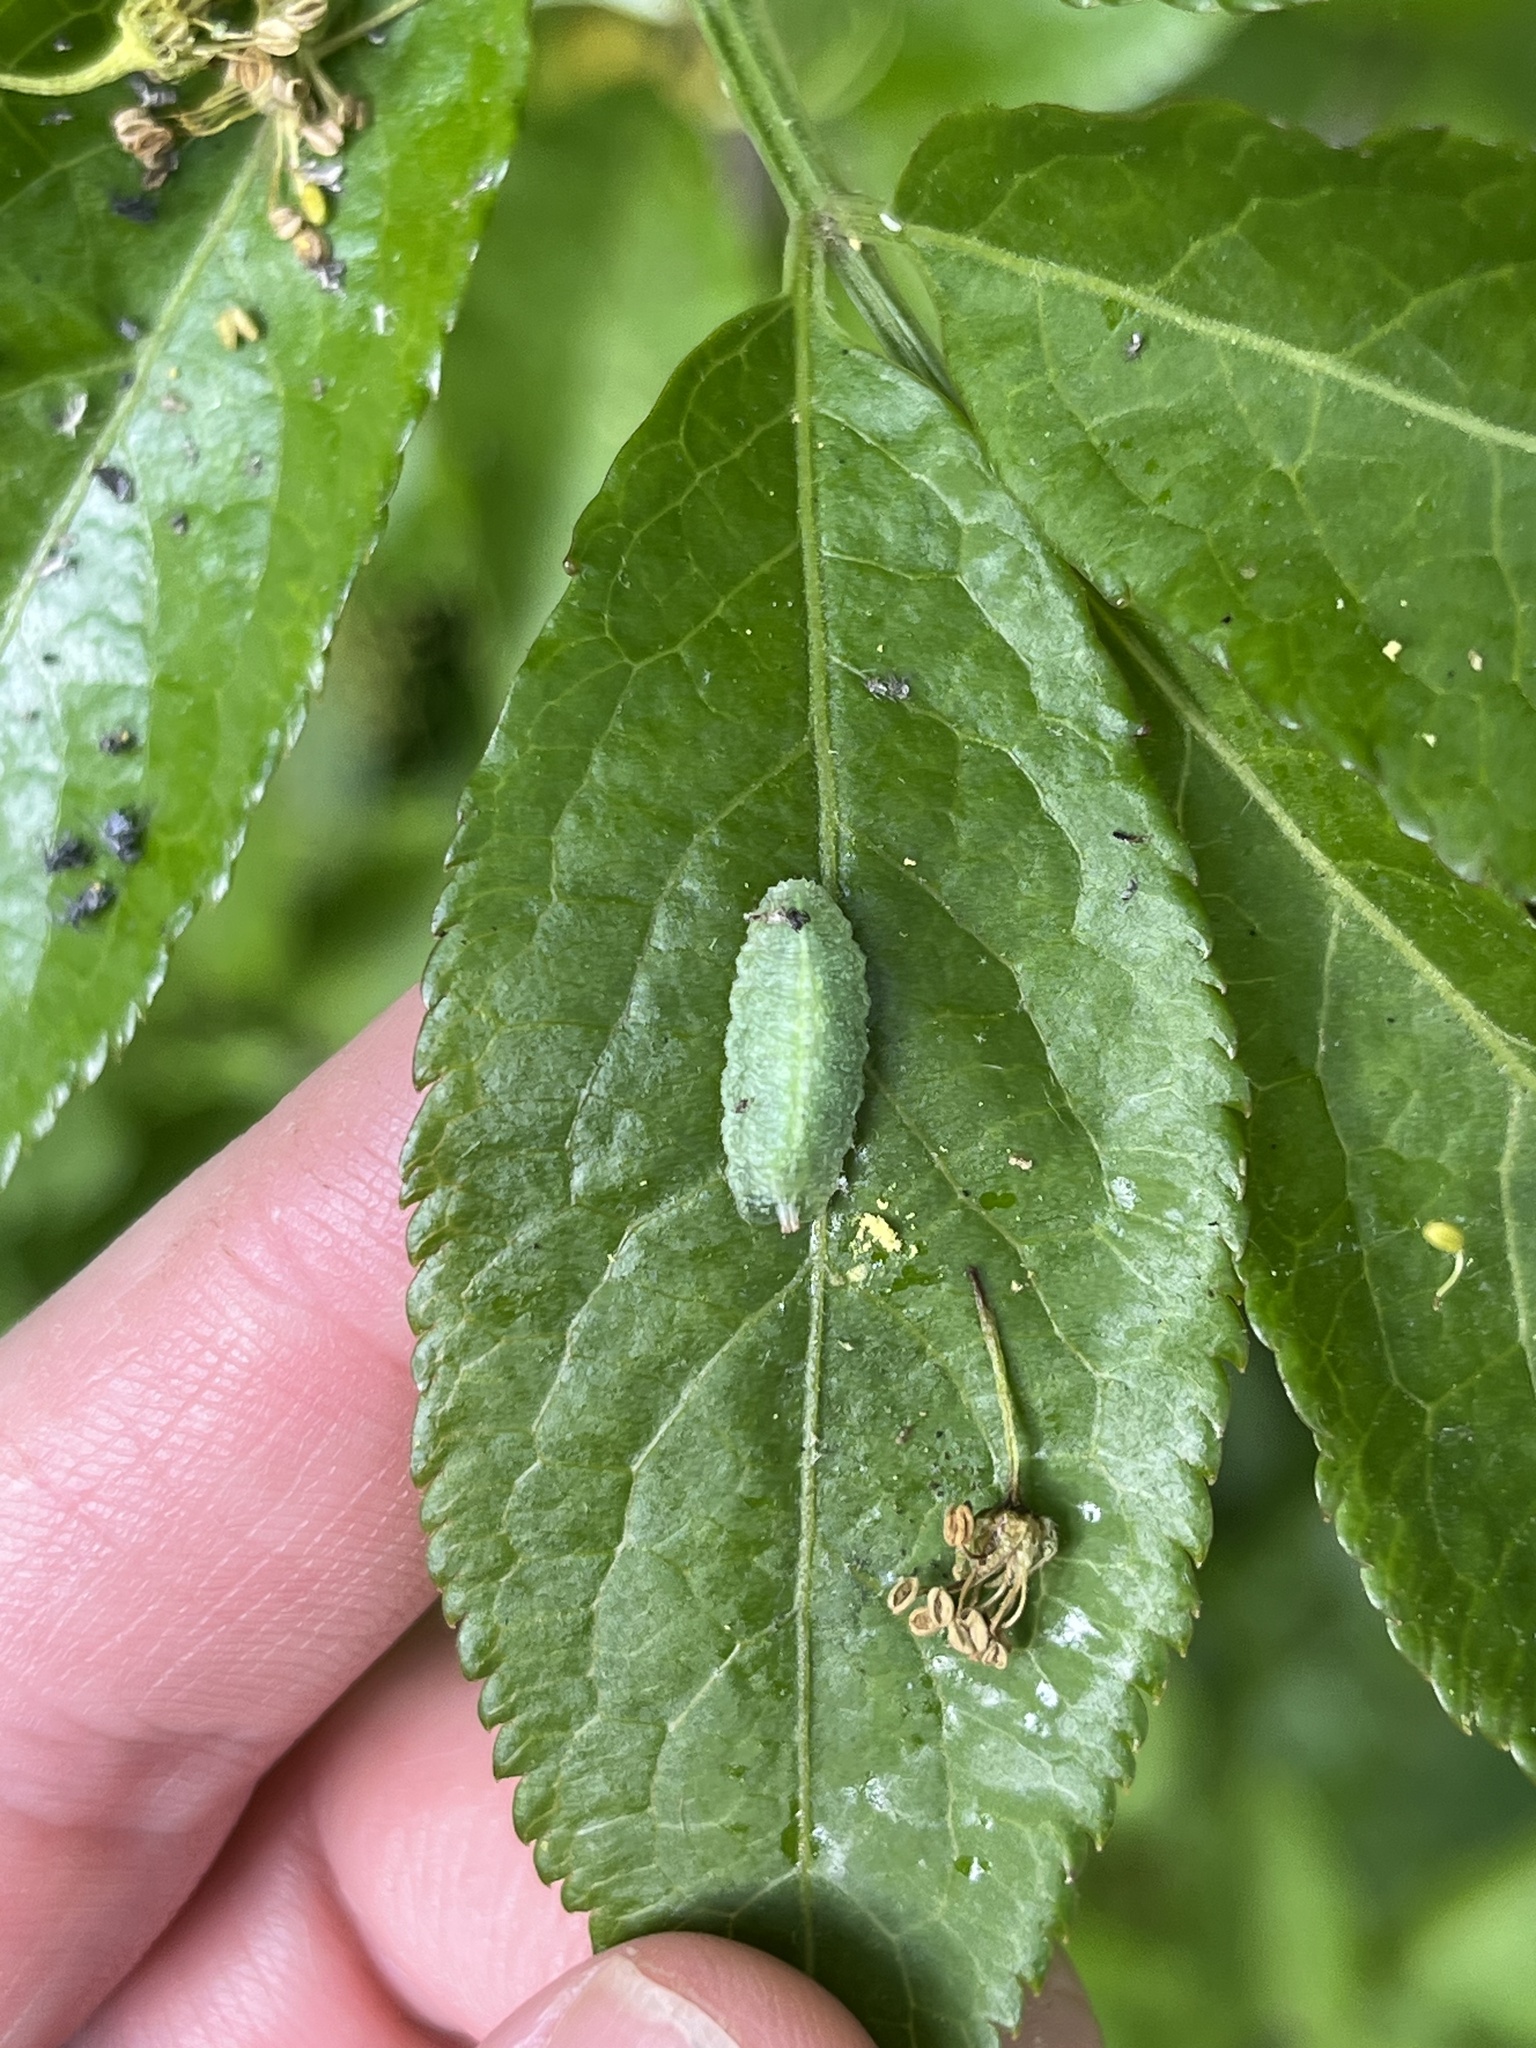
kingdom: Animalia
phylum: Arthropoda
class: Insecta
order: Diptera
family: Syrphidae
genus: Epistrophe
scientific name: Epistrophe eligans
